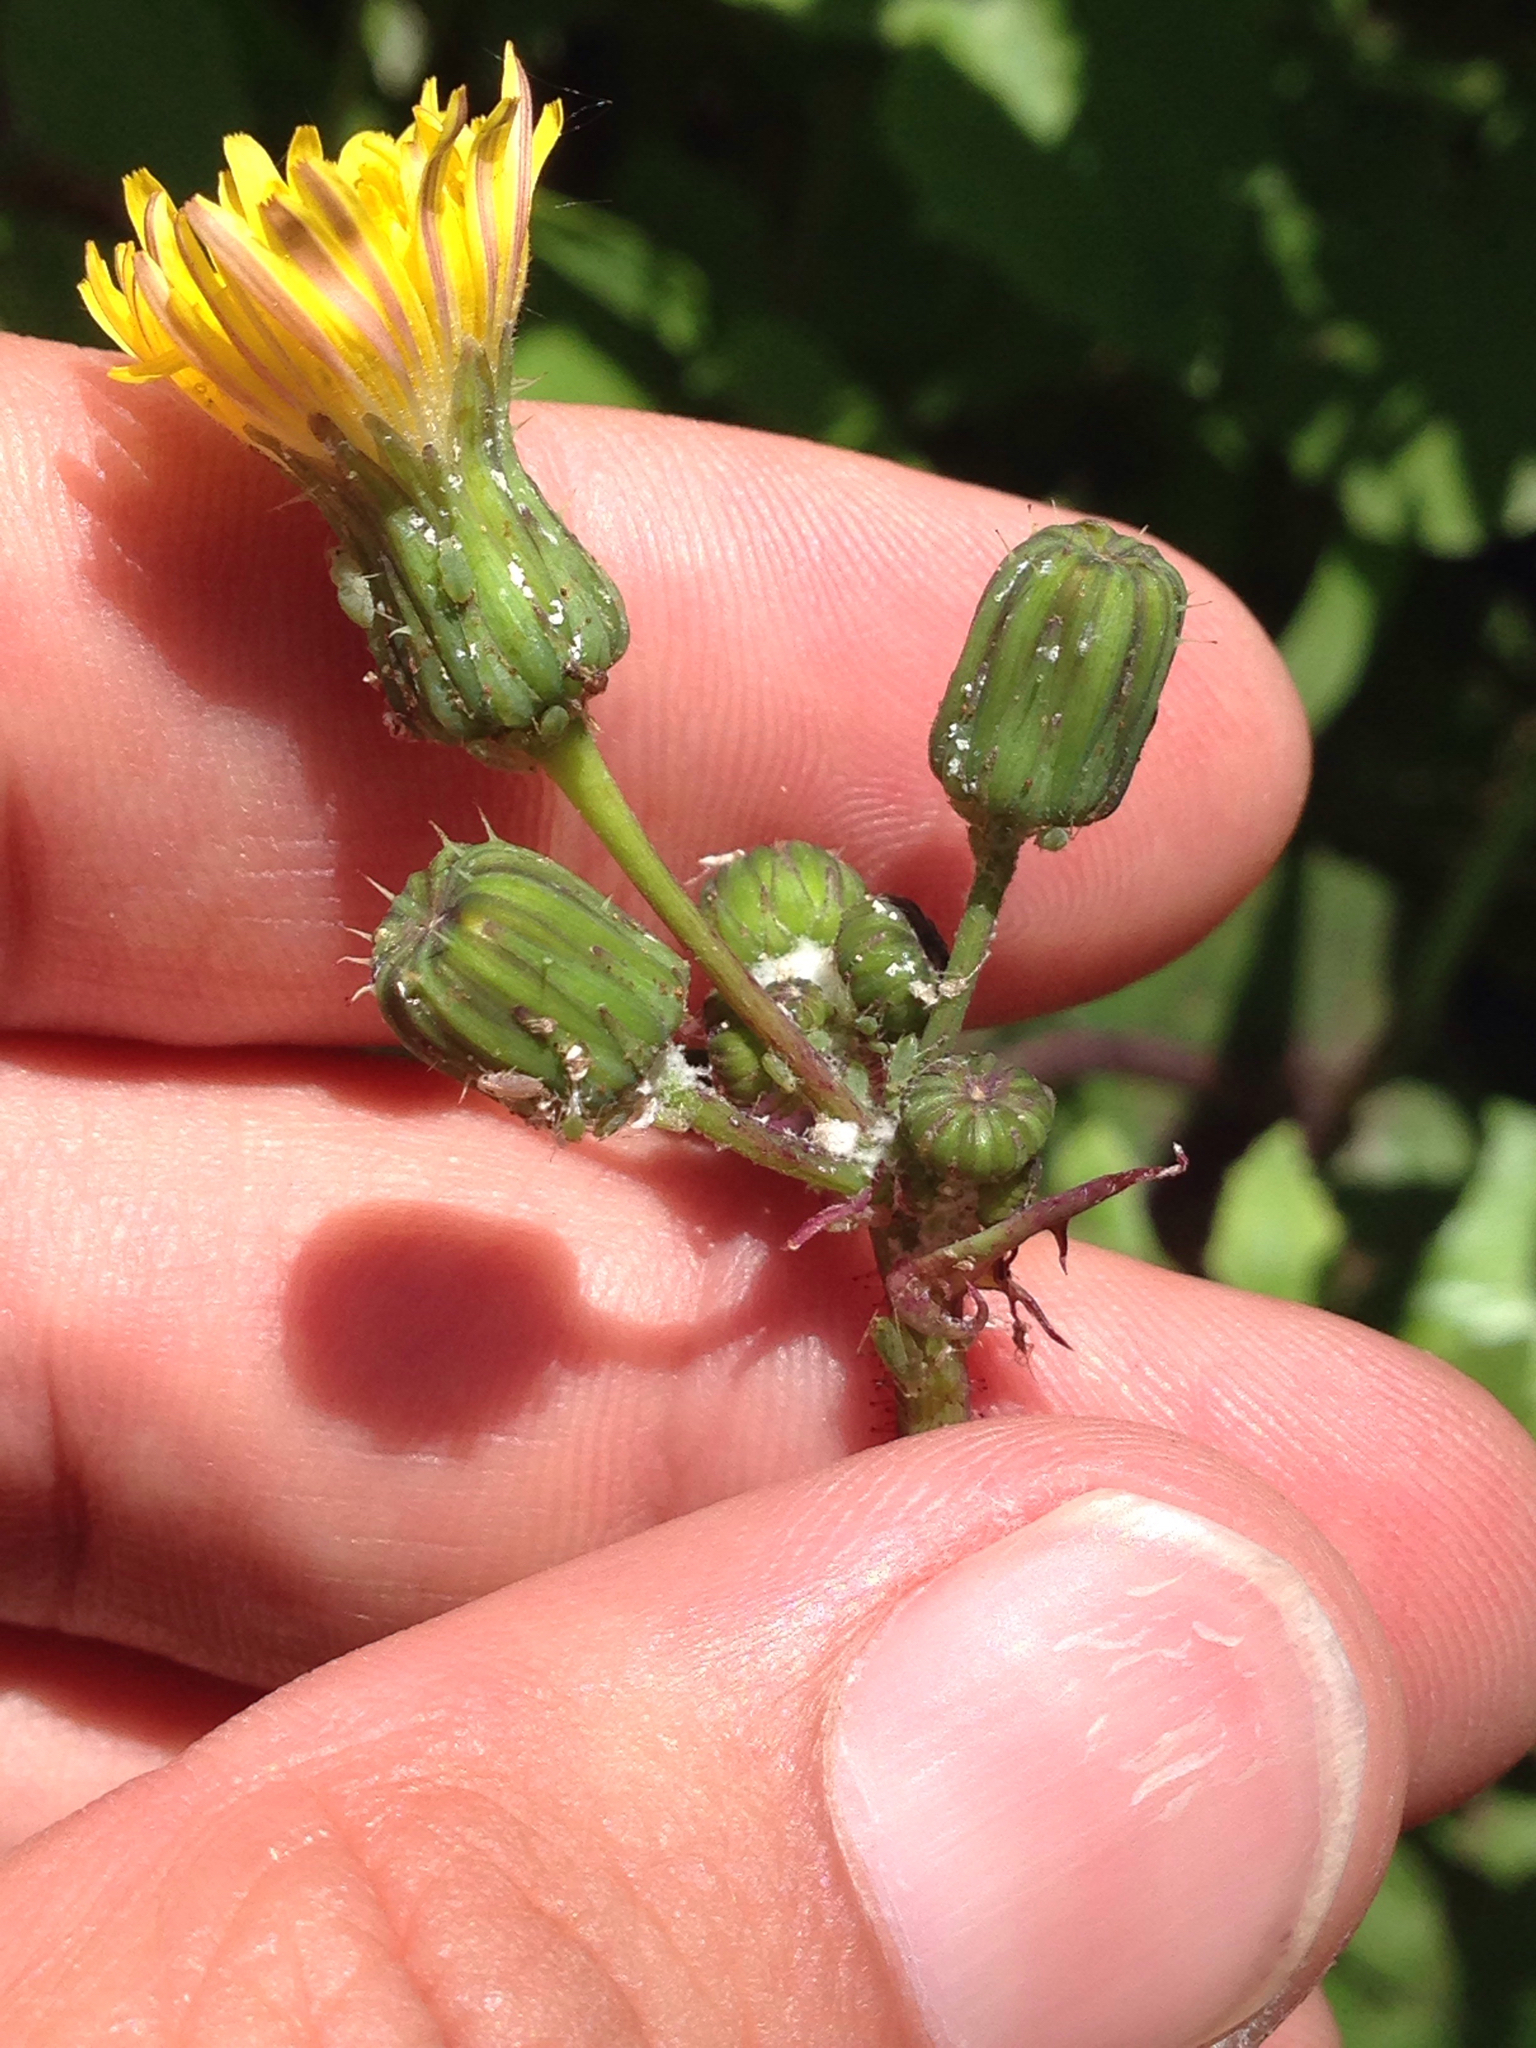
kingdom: Plantae
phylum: Tracheophyta
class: Magnoliopsida
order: Asterales
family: Asteraceae
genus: Sonchus
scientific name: Sonchus oleraceus
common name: Common sowthistle
